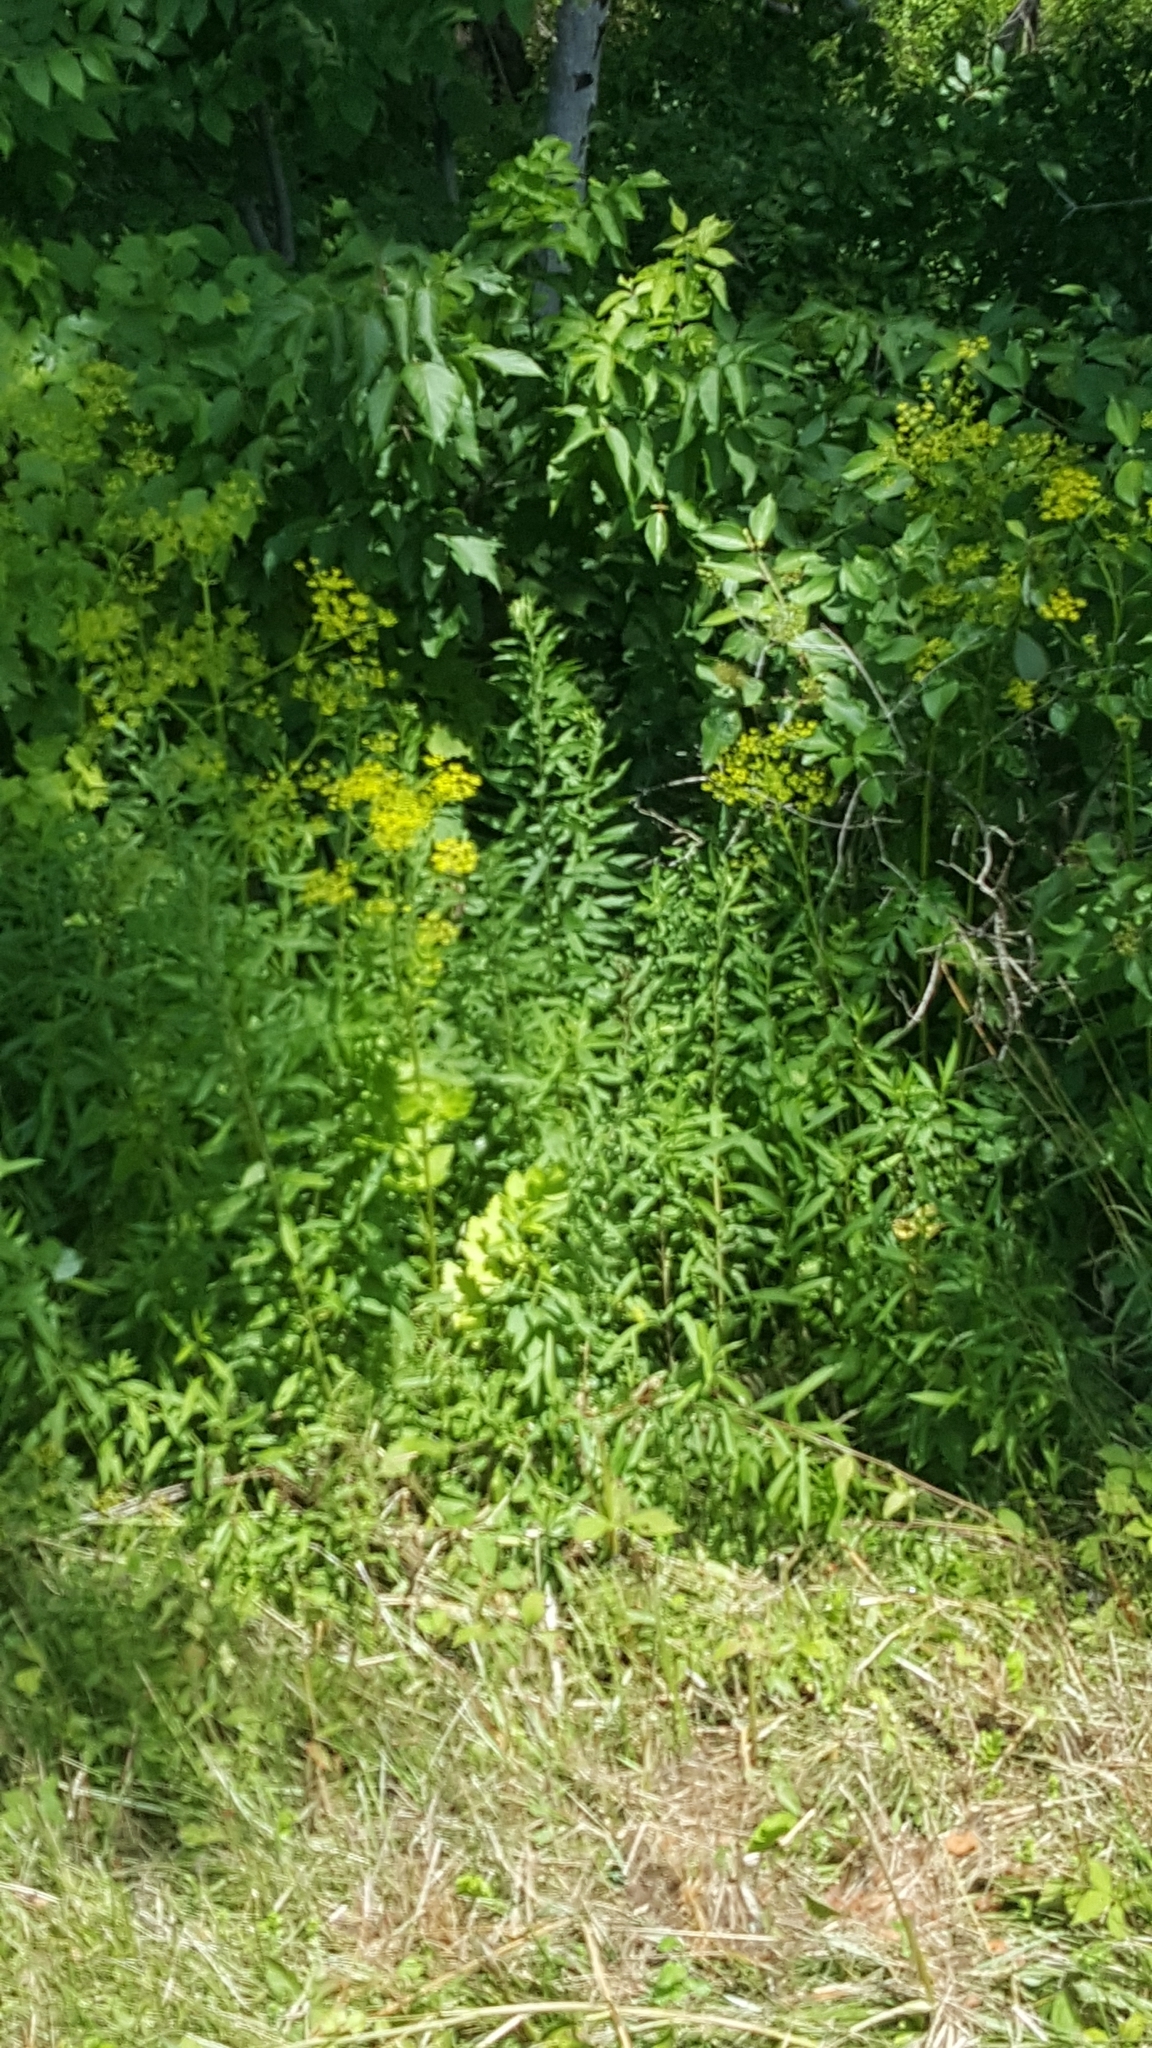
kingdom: Plantae
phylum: Tracheophyta
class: Magnoliopsida
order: Apiales
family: Apiaceae
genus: Pastinaca
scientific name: Pastinaca sativa
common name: Wild parsnip
